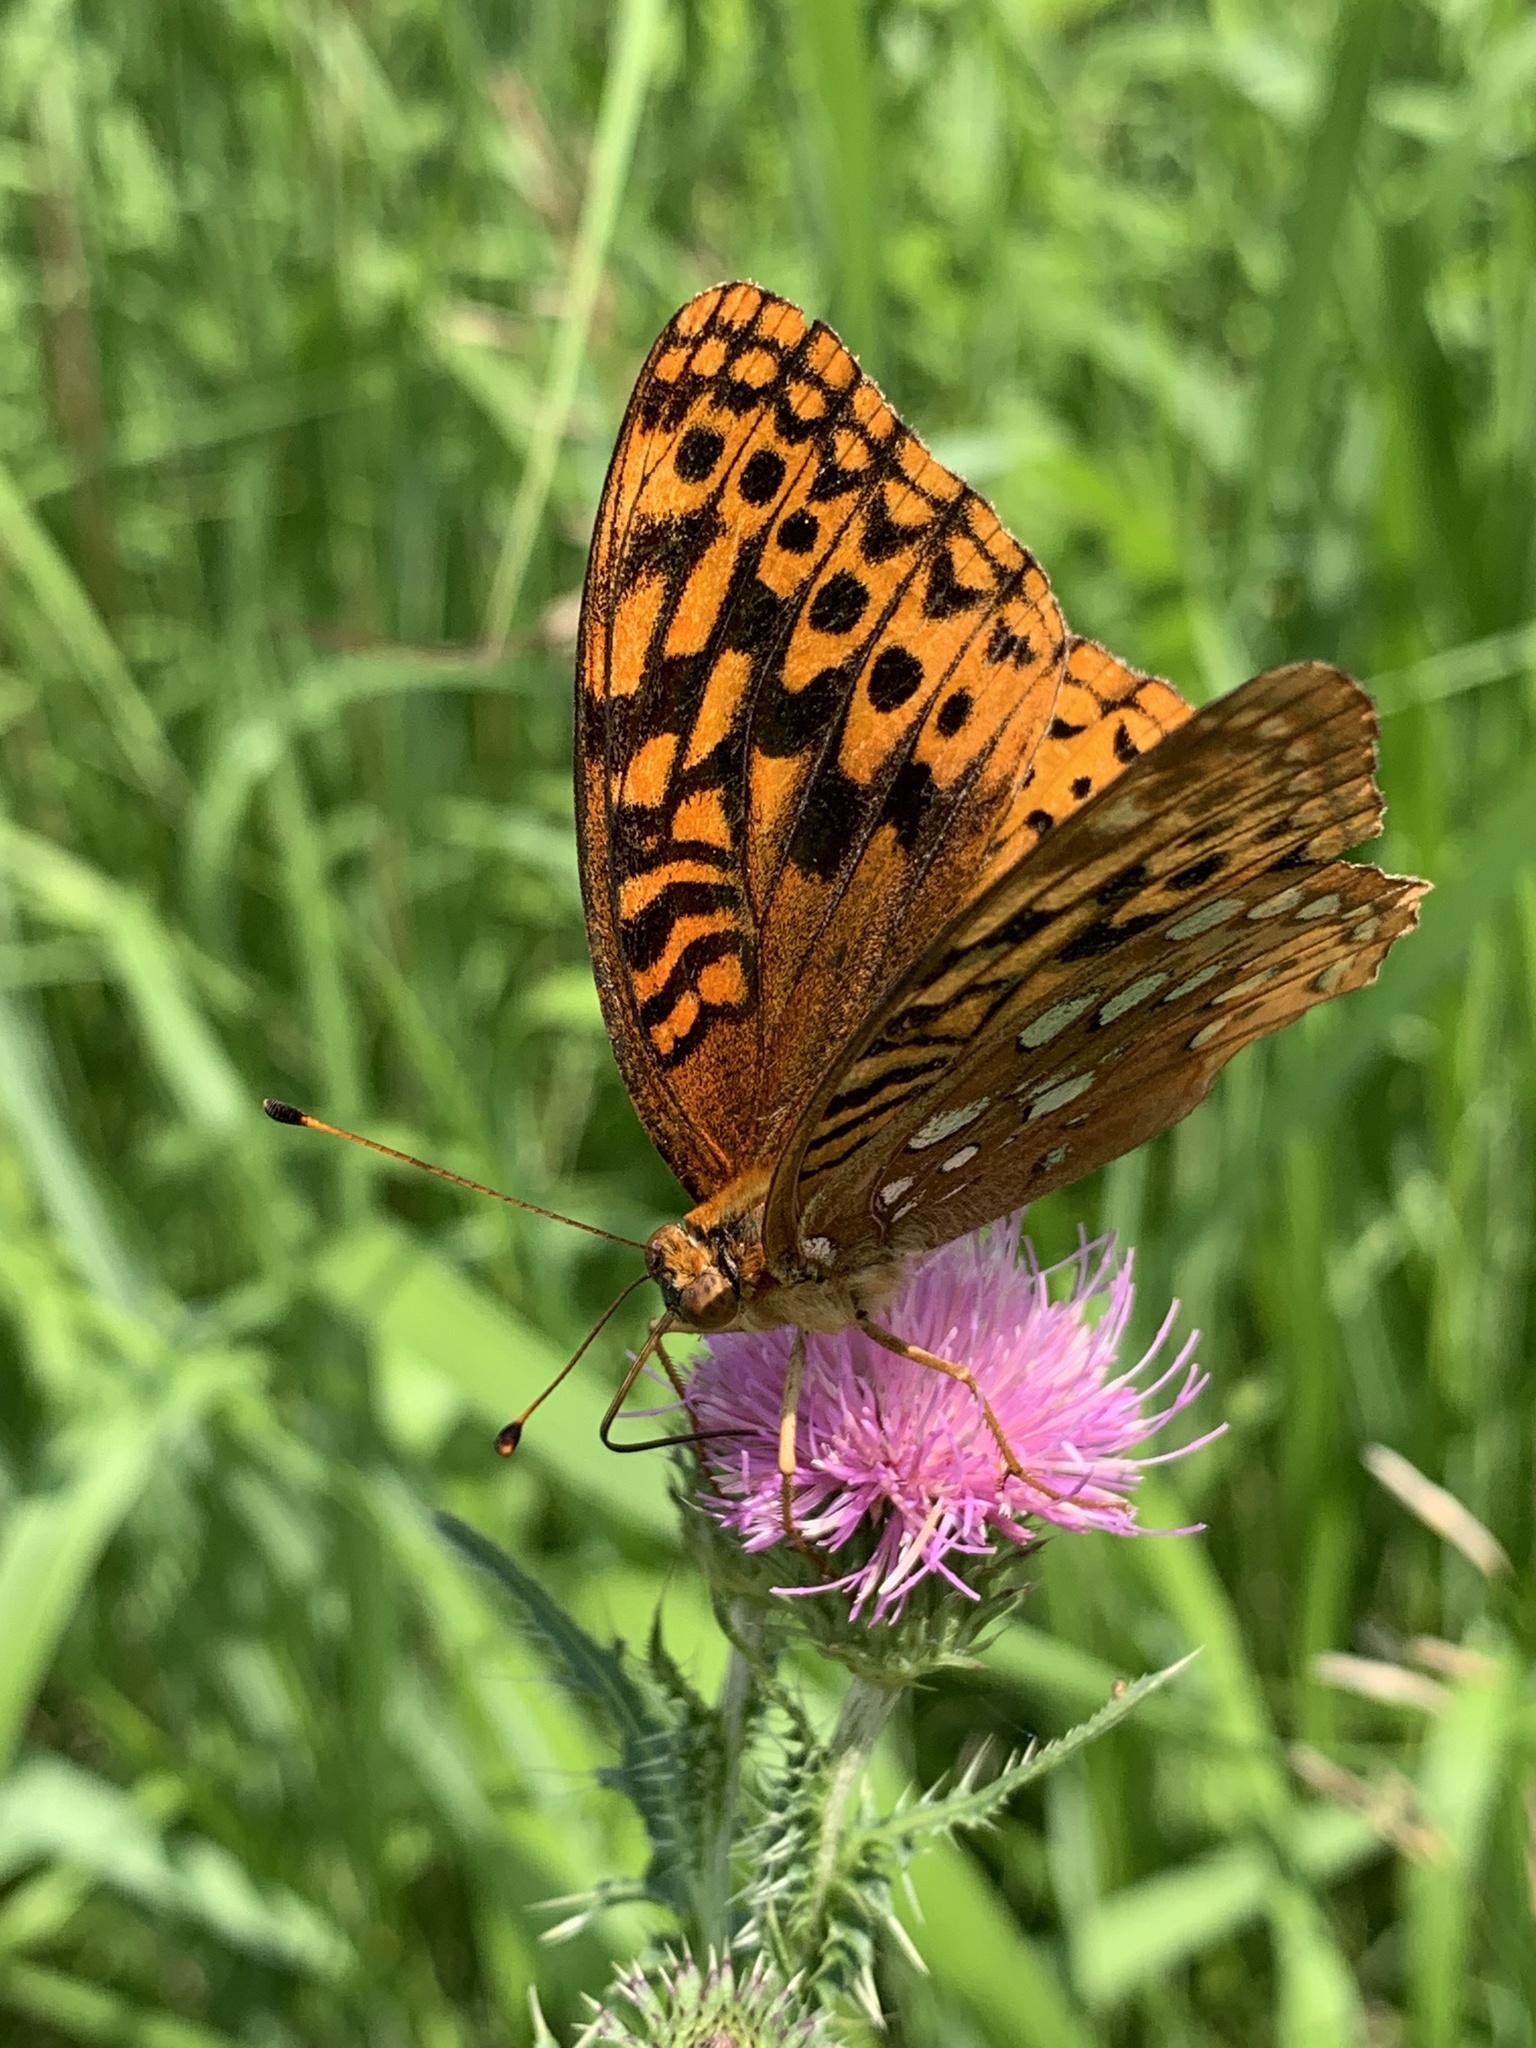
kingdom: Animalia
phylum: Arthropoda
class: Insecta
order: Lepidoptera
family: Nymphalidae
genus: Speyeria
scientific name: Speyeria cybele
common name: Great spangled fritillary
